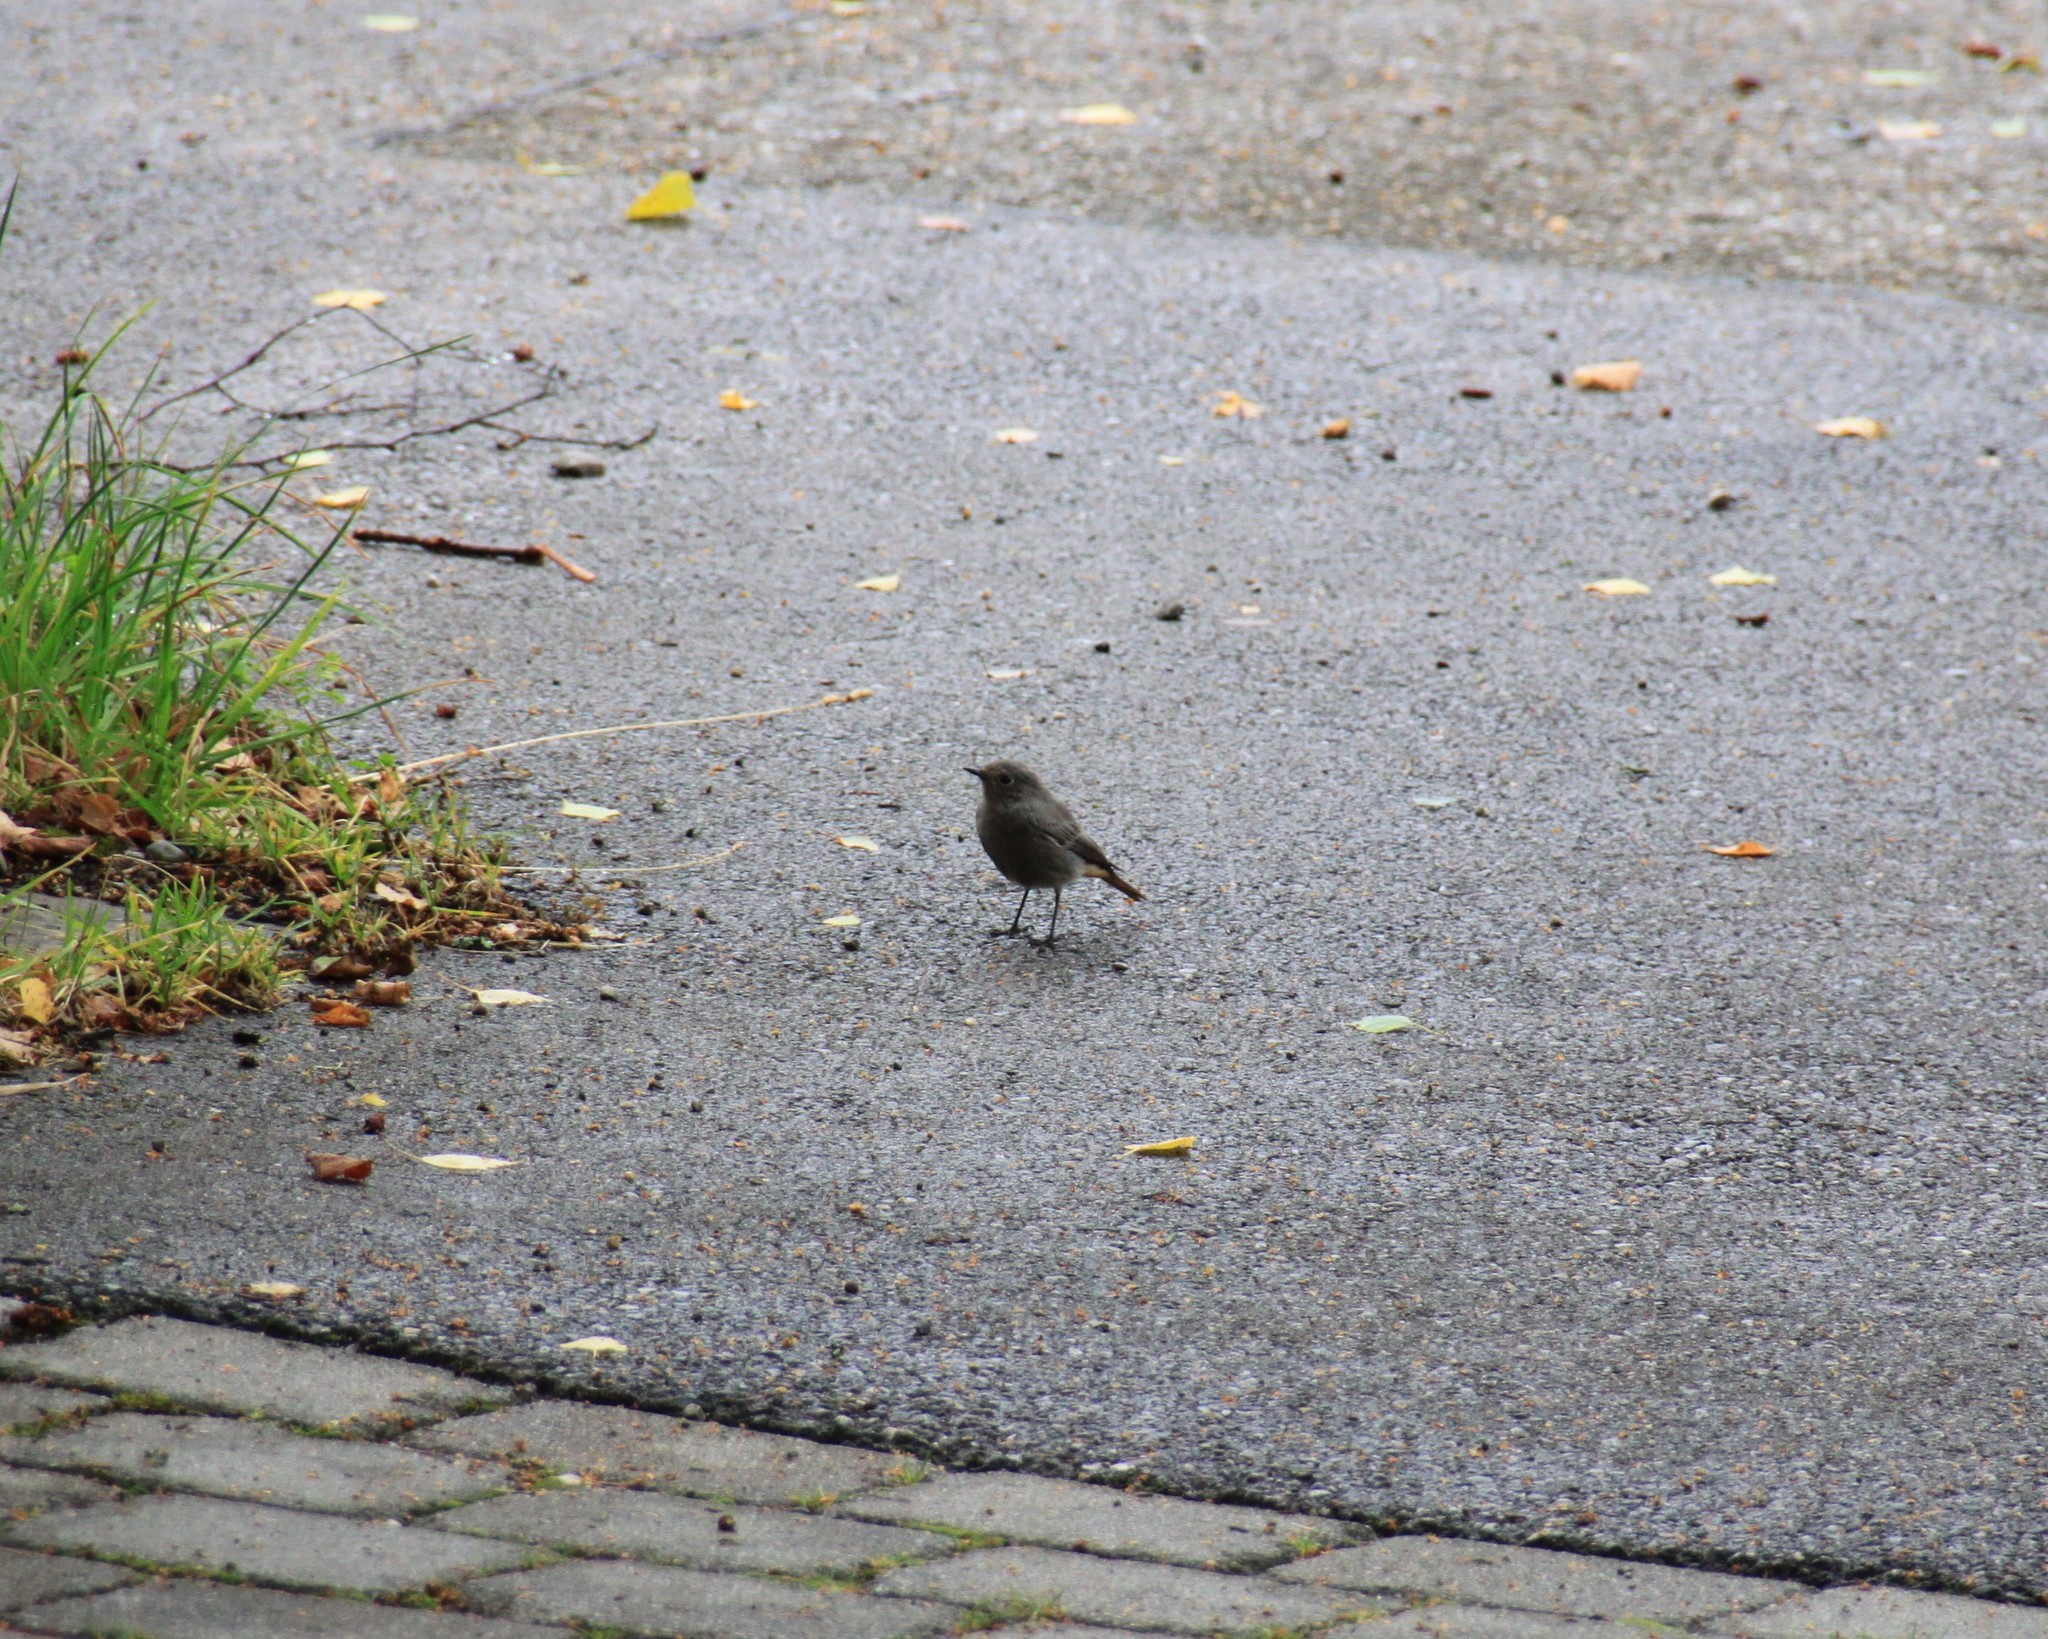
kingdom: Animalia
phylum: Chordata
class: Aves
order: Passeriformes
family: Muscicapidae
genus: Phoenicurus
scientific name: Phoenicurus ochruros
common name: Black redstart
